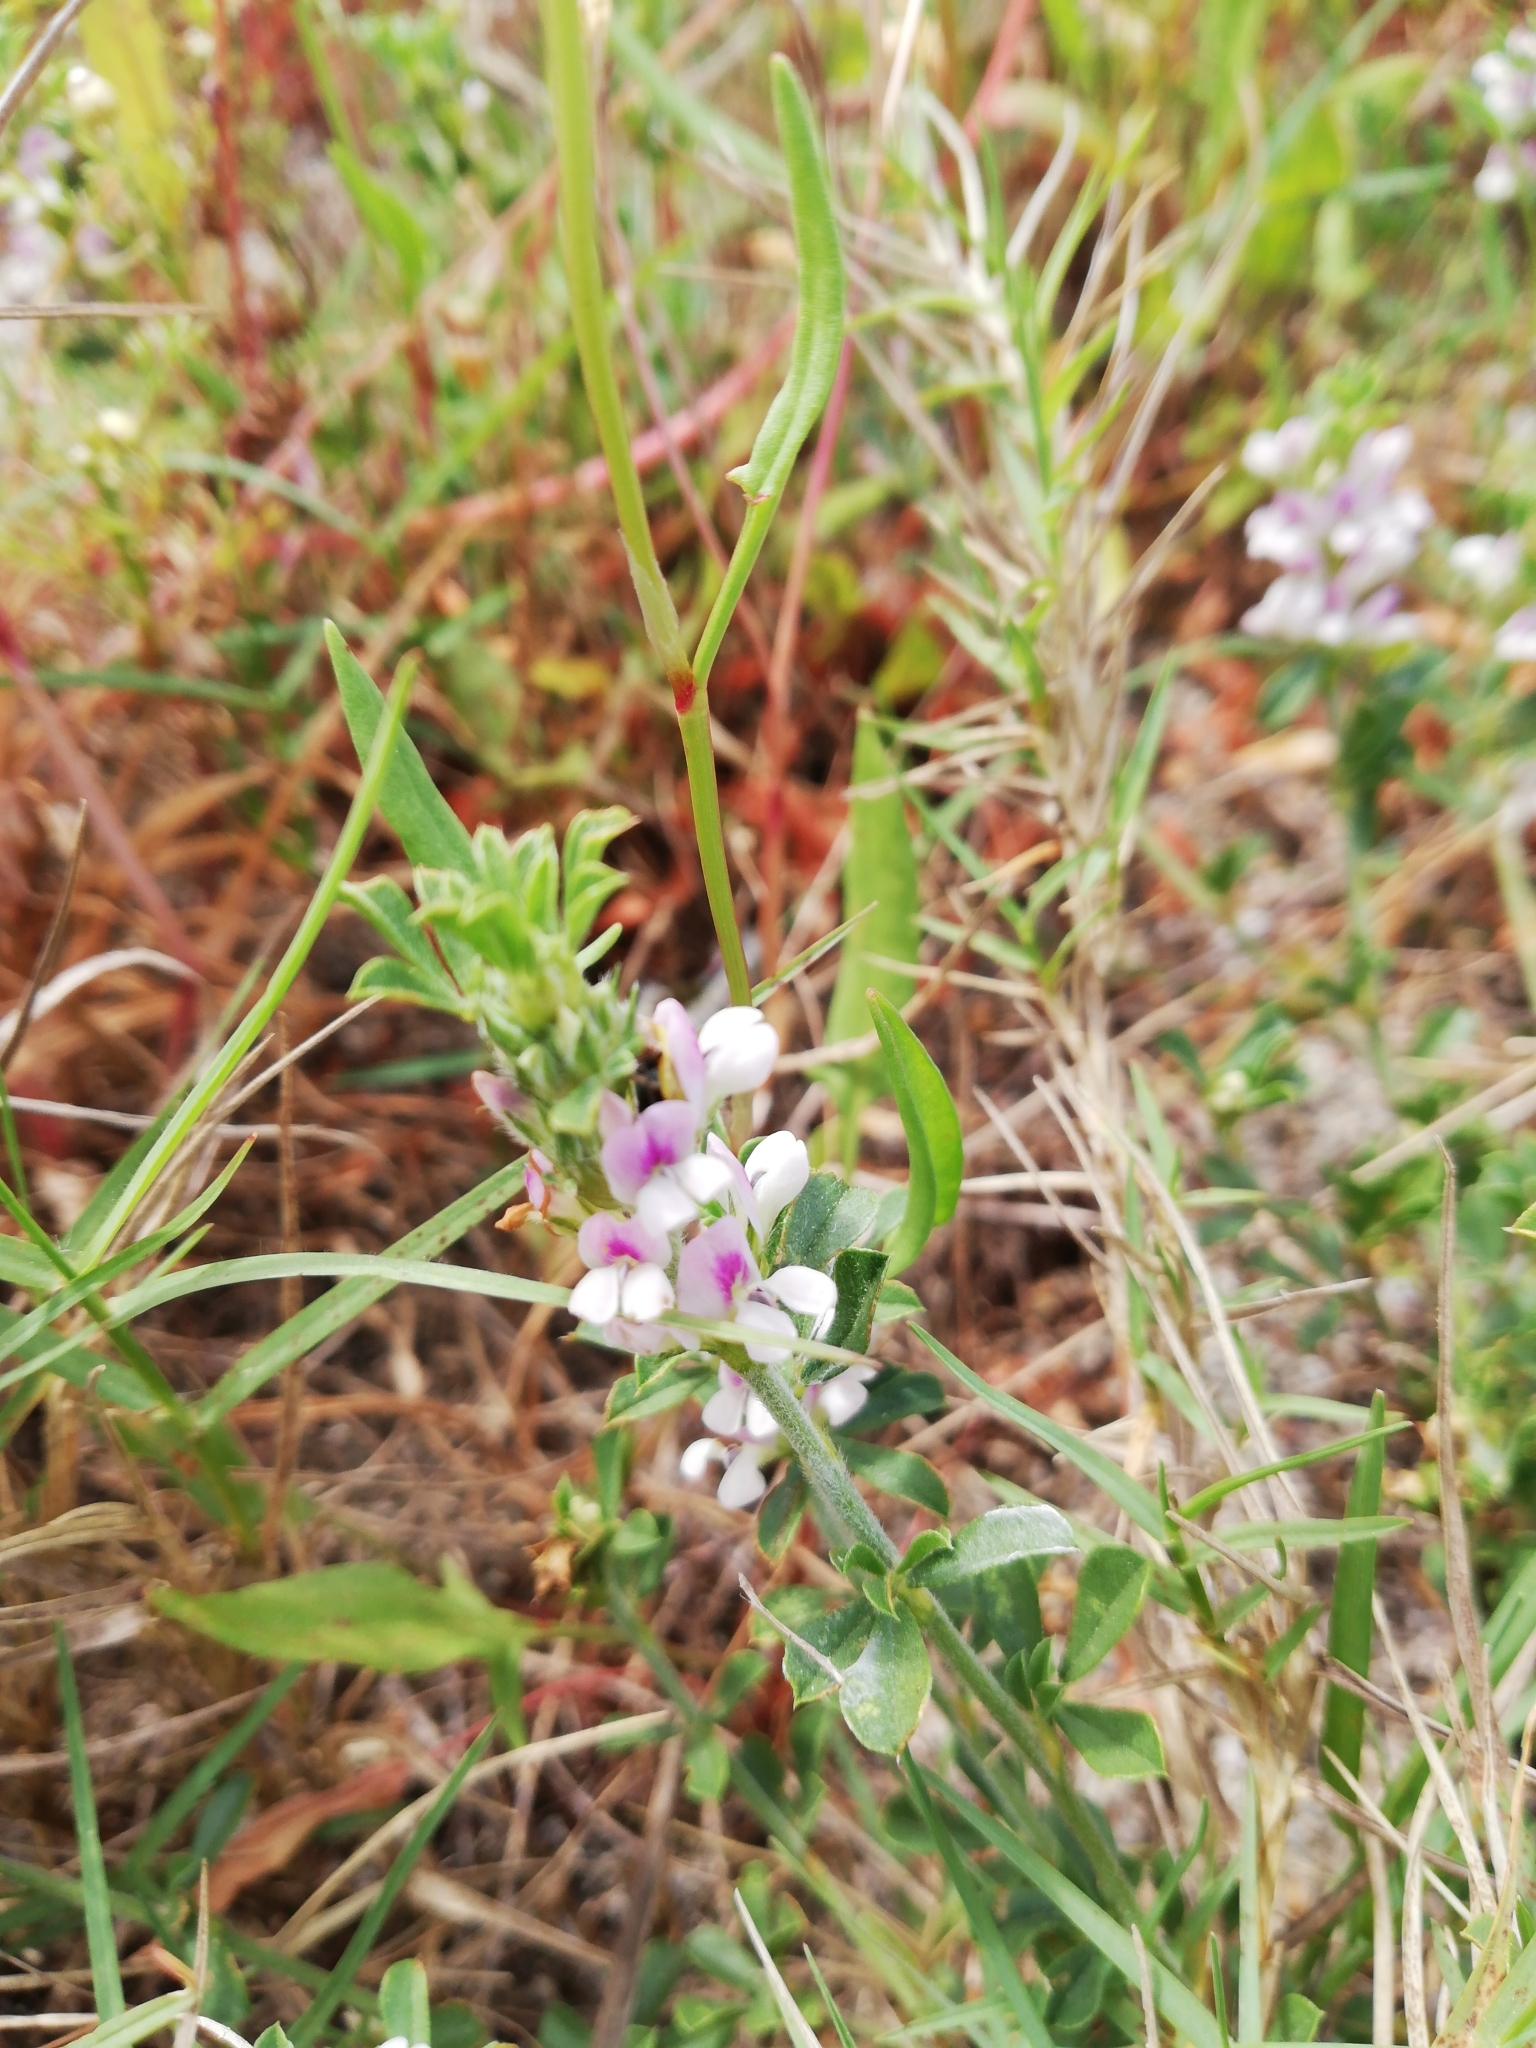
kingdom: Plantae
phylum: Tracheophyta
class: Magnoliopsida
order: Fabales
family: Fabaceae
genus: Psoralea
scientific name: Psoralea
